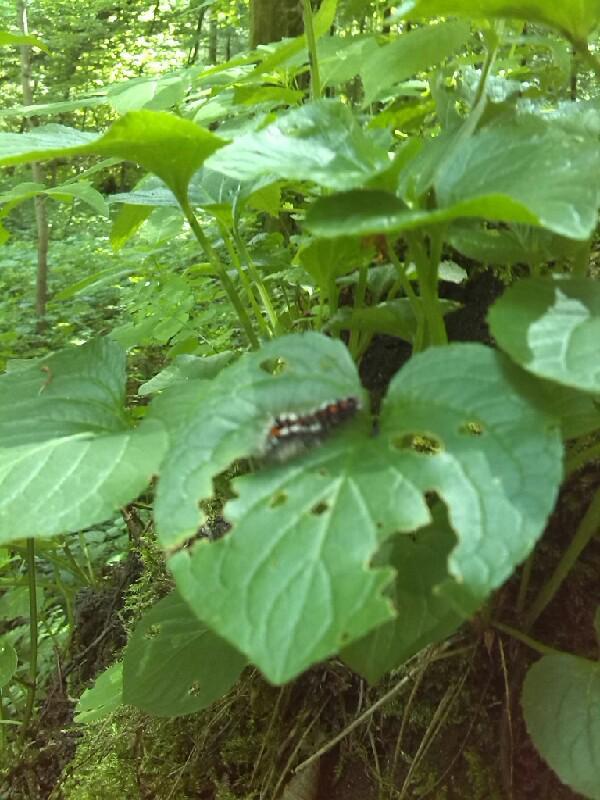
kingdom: Plantae
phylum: Tracheophyta
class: Magnoliopsida
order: Malpighiales
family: Violaceae
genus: Viola
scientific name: Viola mirabilis
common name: Wonder violet
